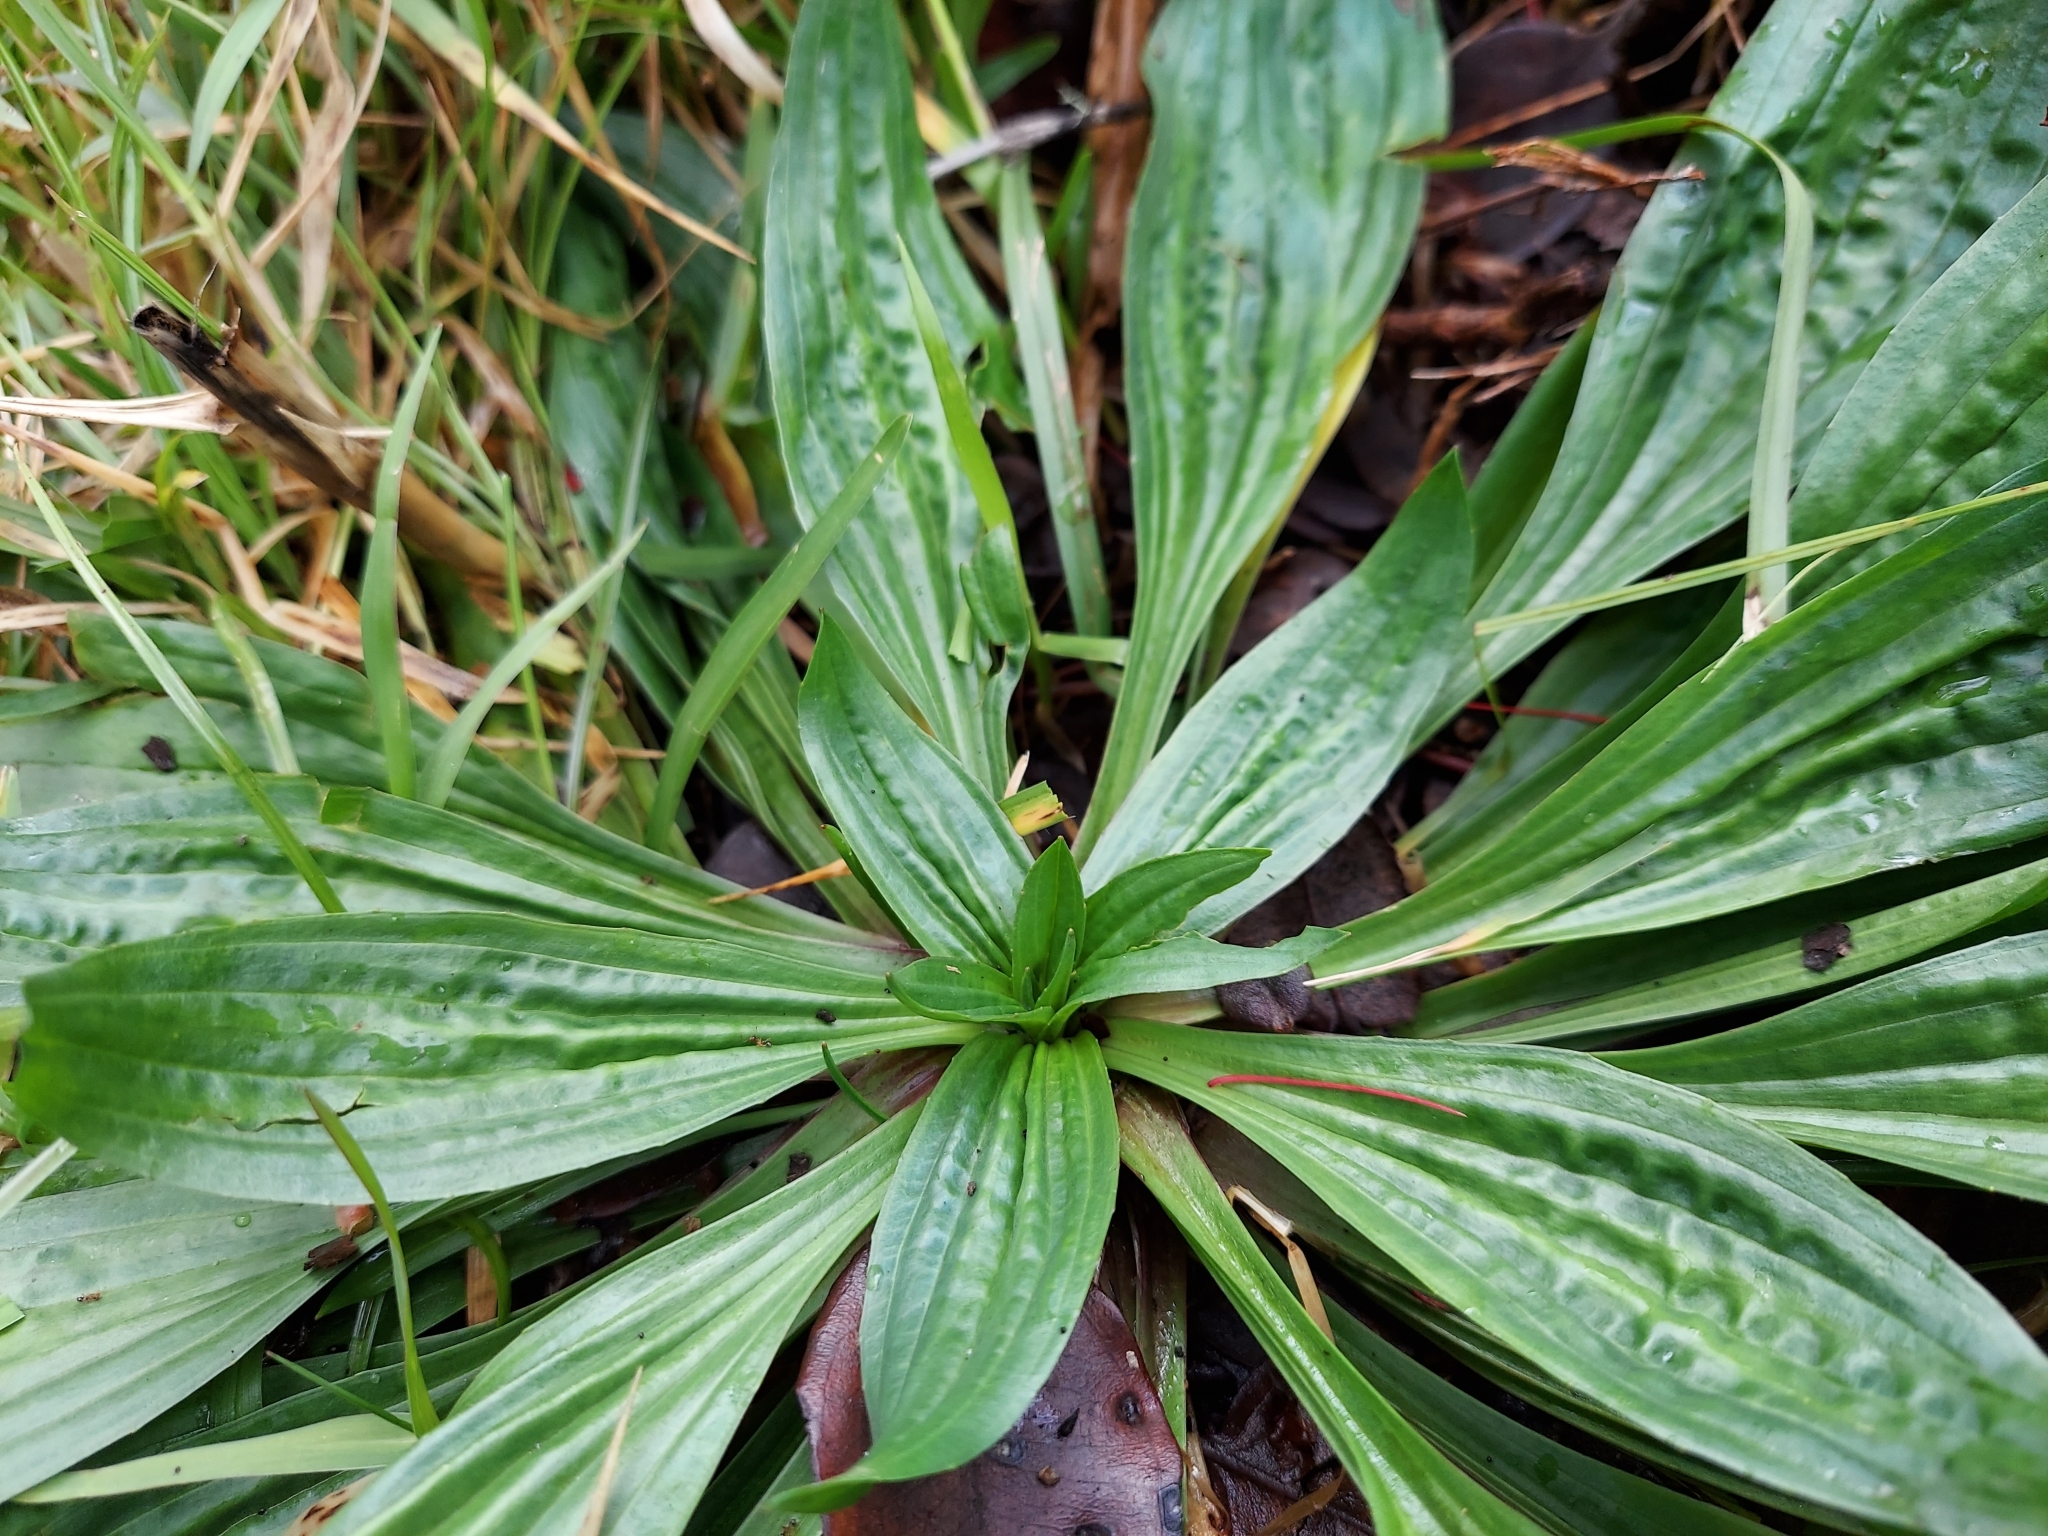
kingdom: Plantae
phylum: Tracheophyta
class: Magnoliopsida
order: Lamiales
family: Plantaginaceae
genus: Plantago
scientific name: Plantago lanceolata
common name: Ribwort plantain
